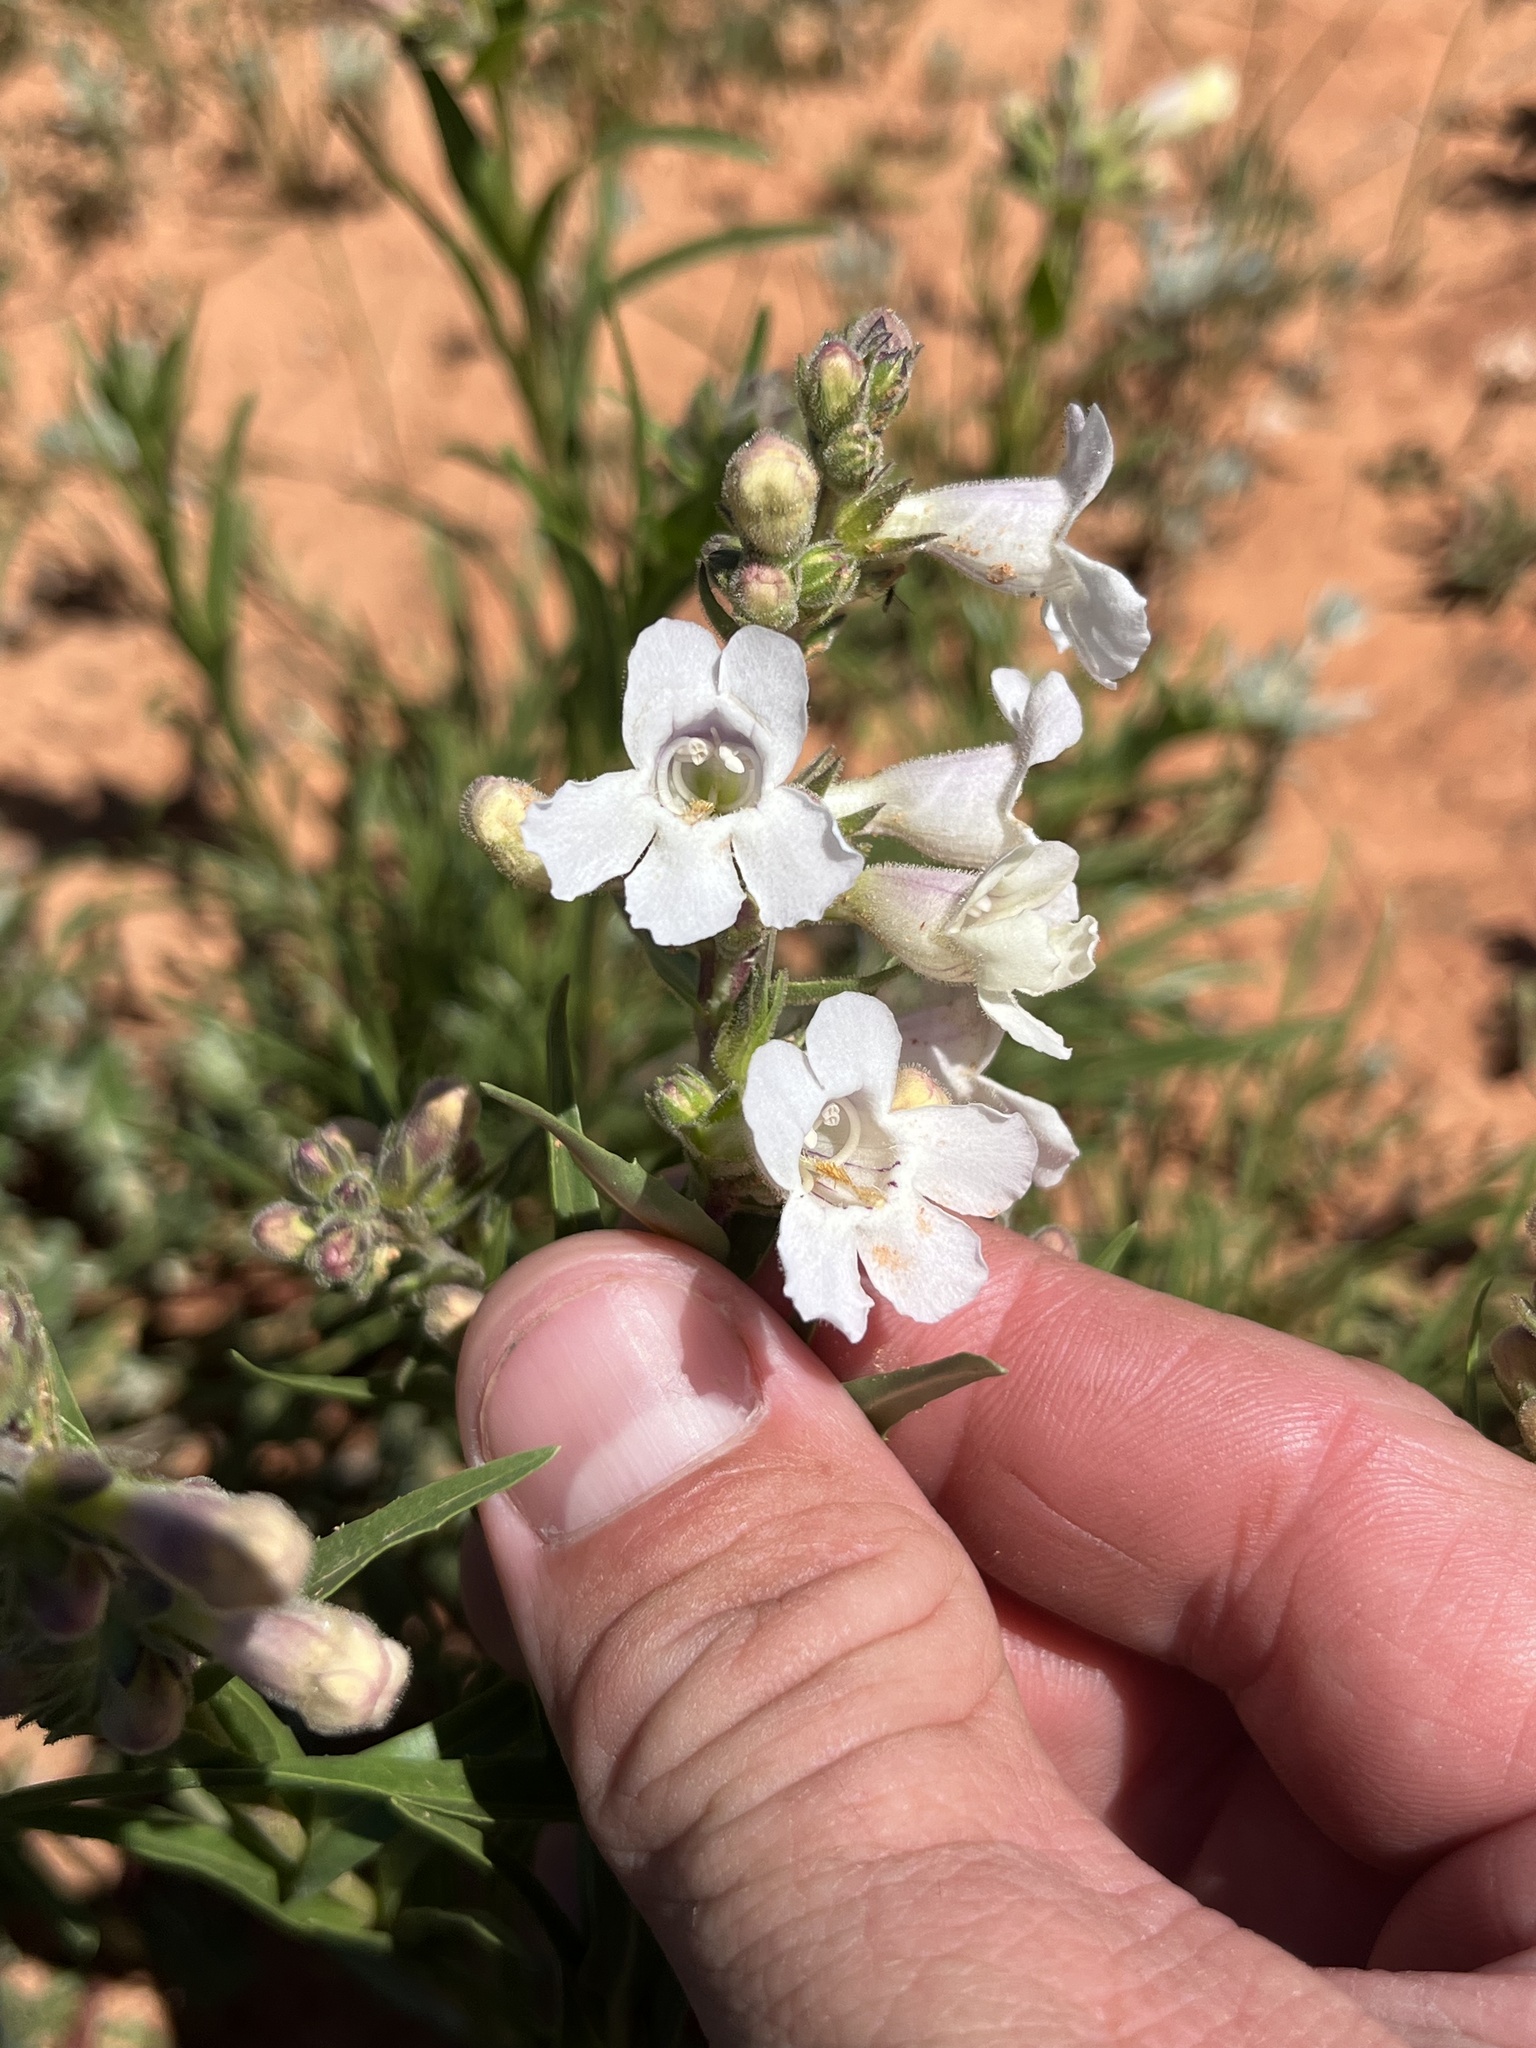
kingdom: Plantae
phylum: Tracheophyta
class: Magnoliopsida
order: Lamiales
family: Plantaginaceae
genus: Penstemon
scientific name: Penstemon guadalupensis
